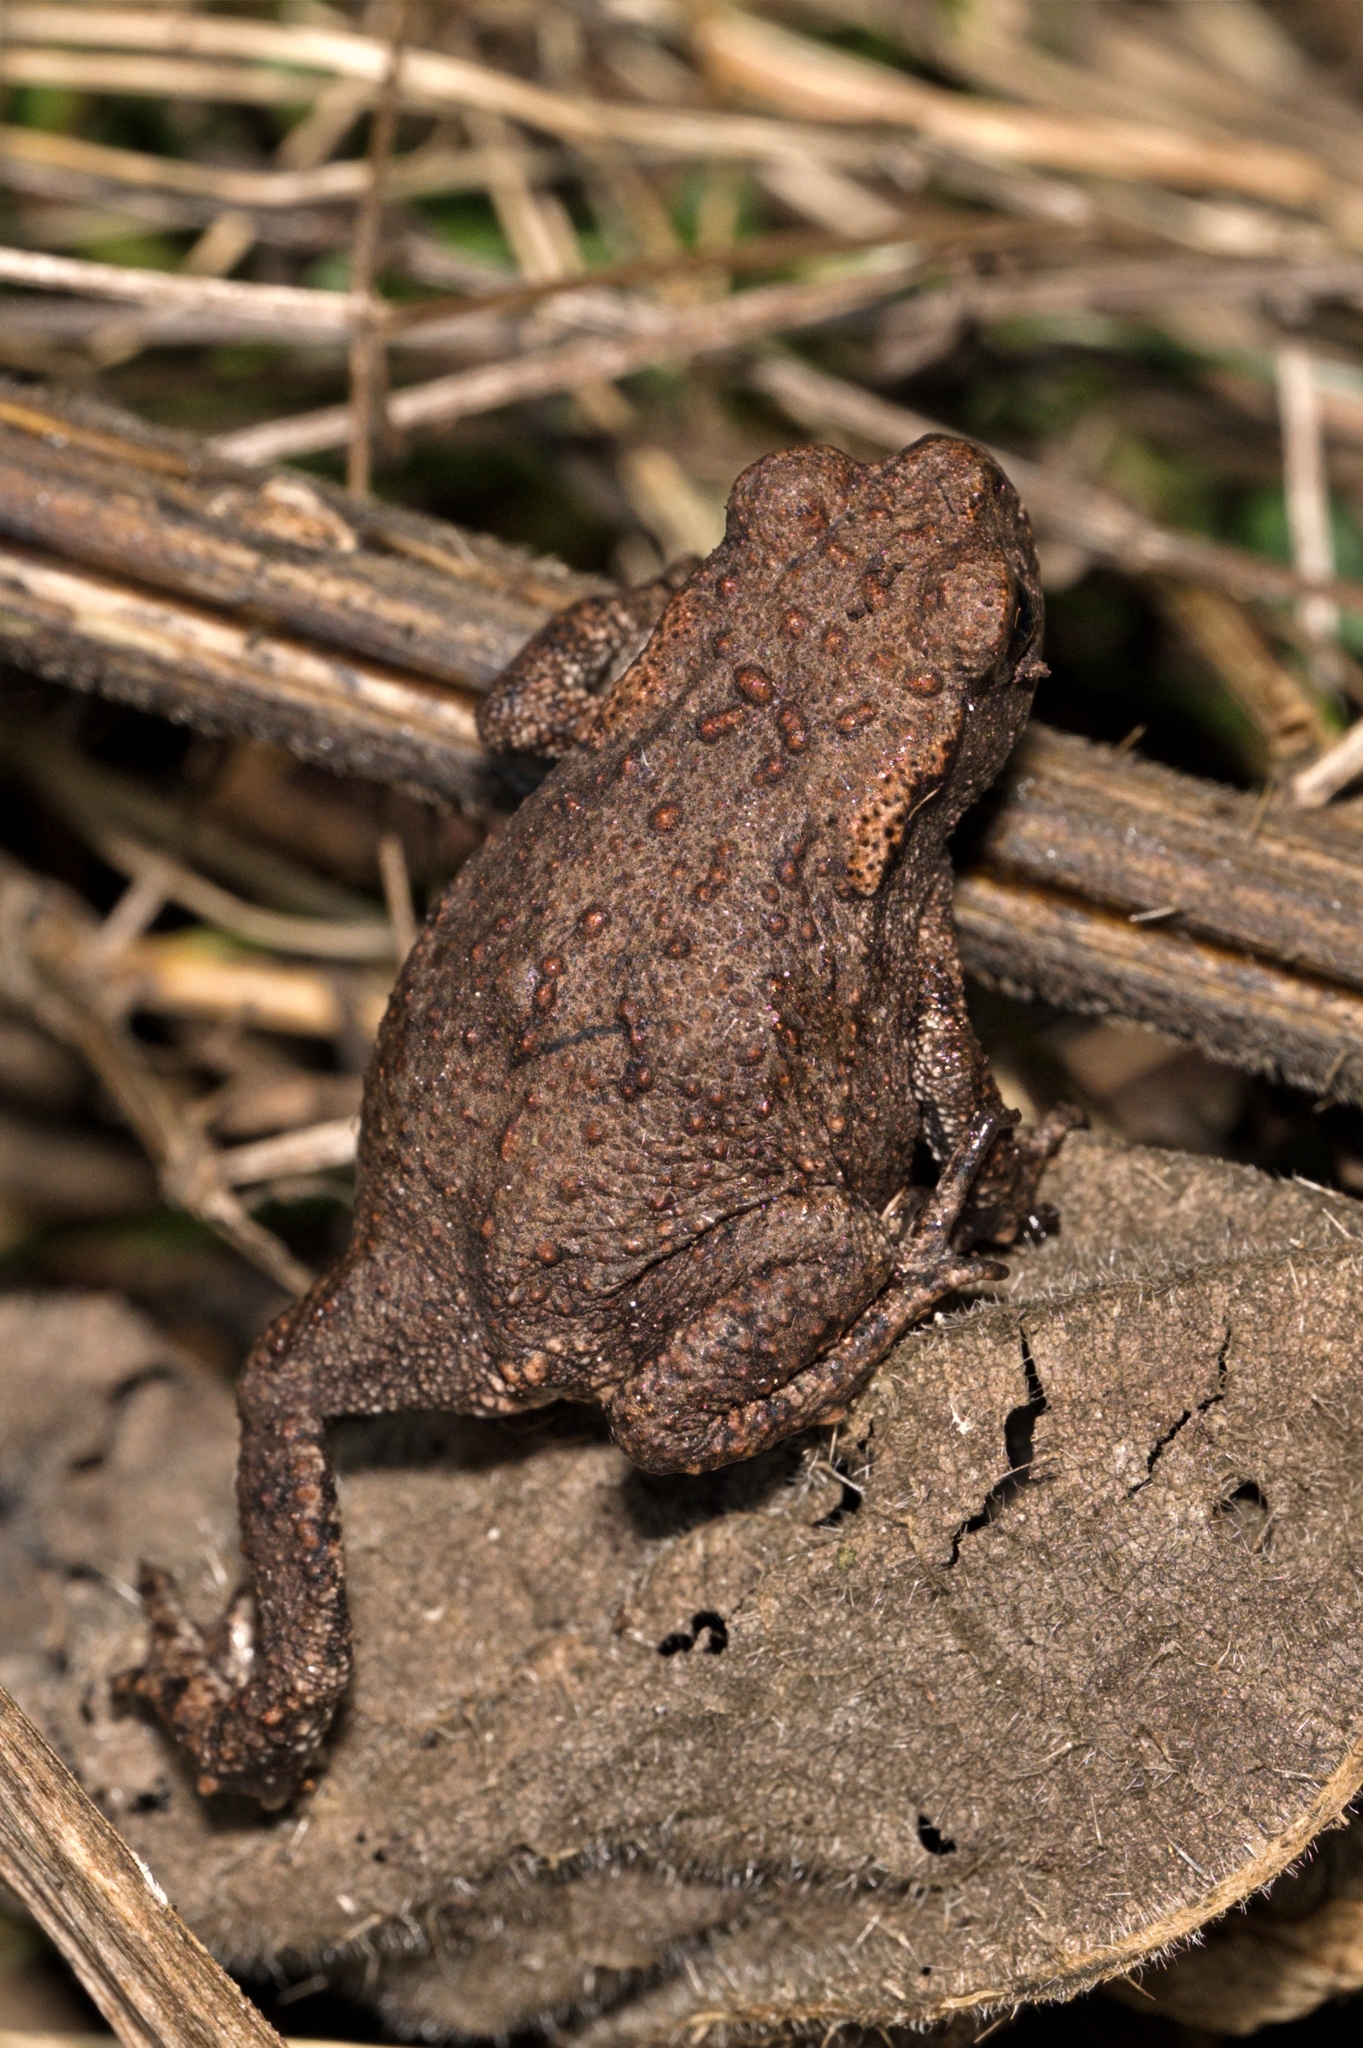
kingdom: Animalia
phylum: Chordata
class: Amphibia
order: Anura
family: Bufonidae
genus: Bufo
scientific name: Bufo bufo
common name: Common toad
